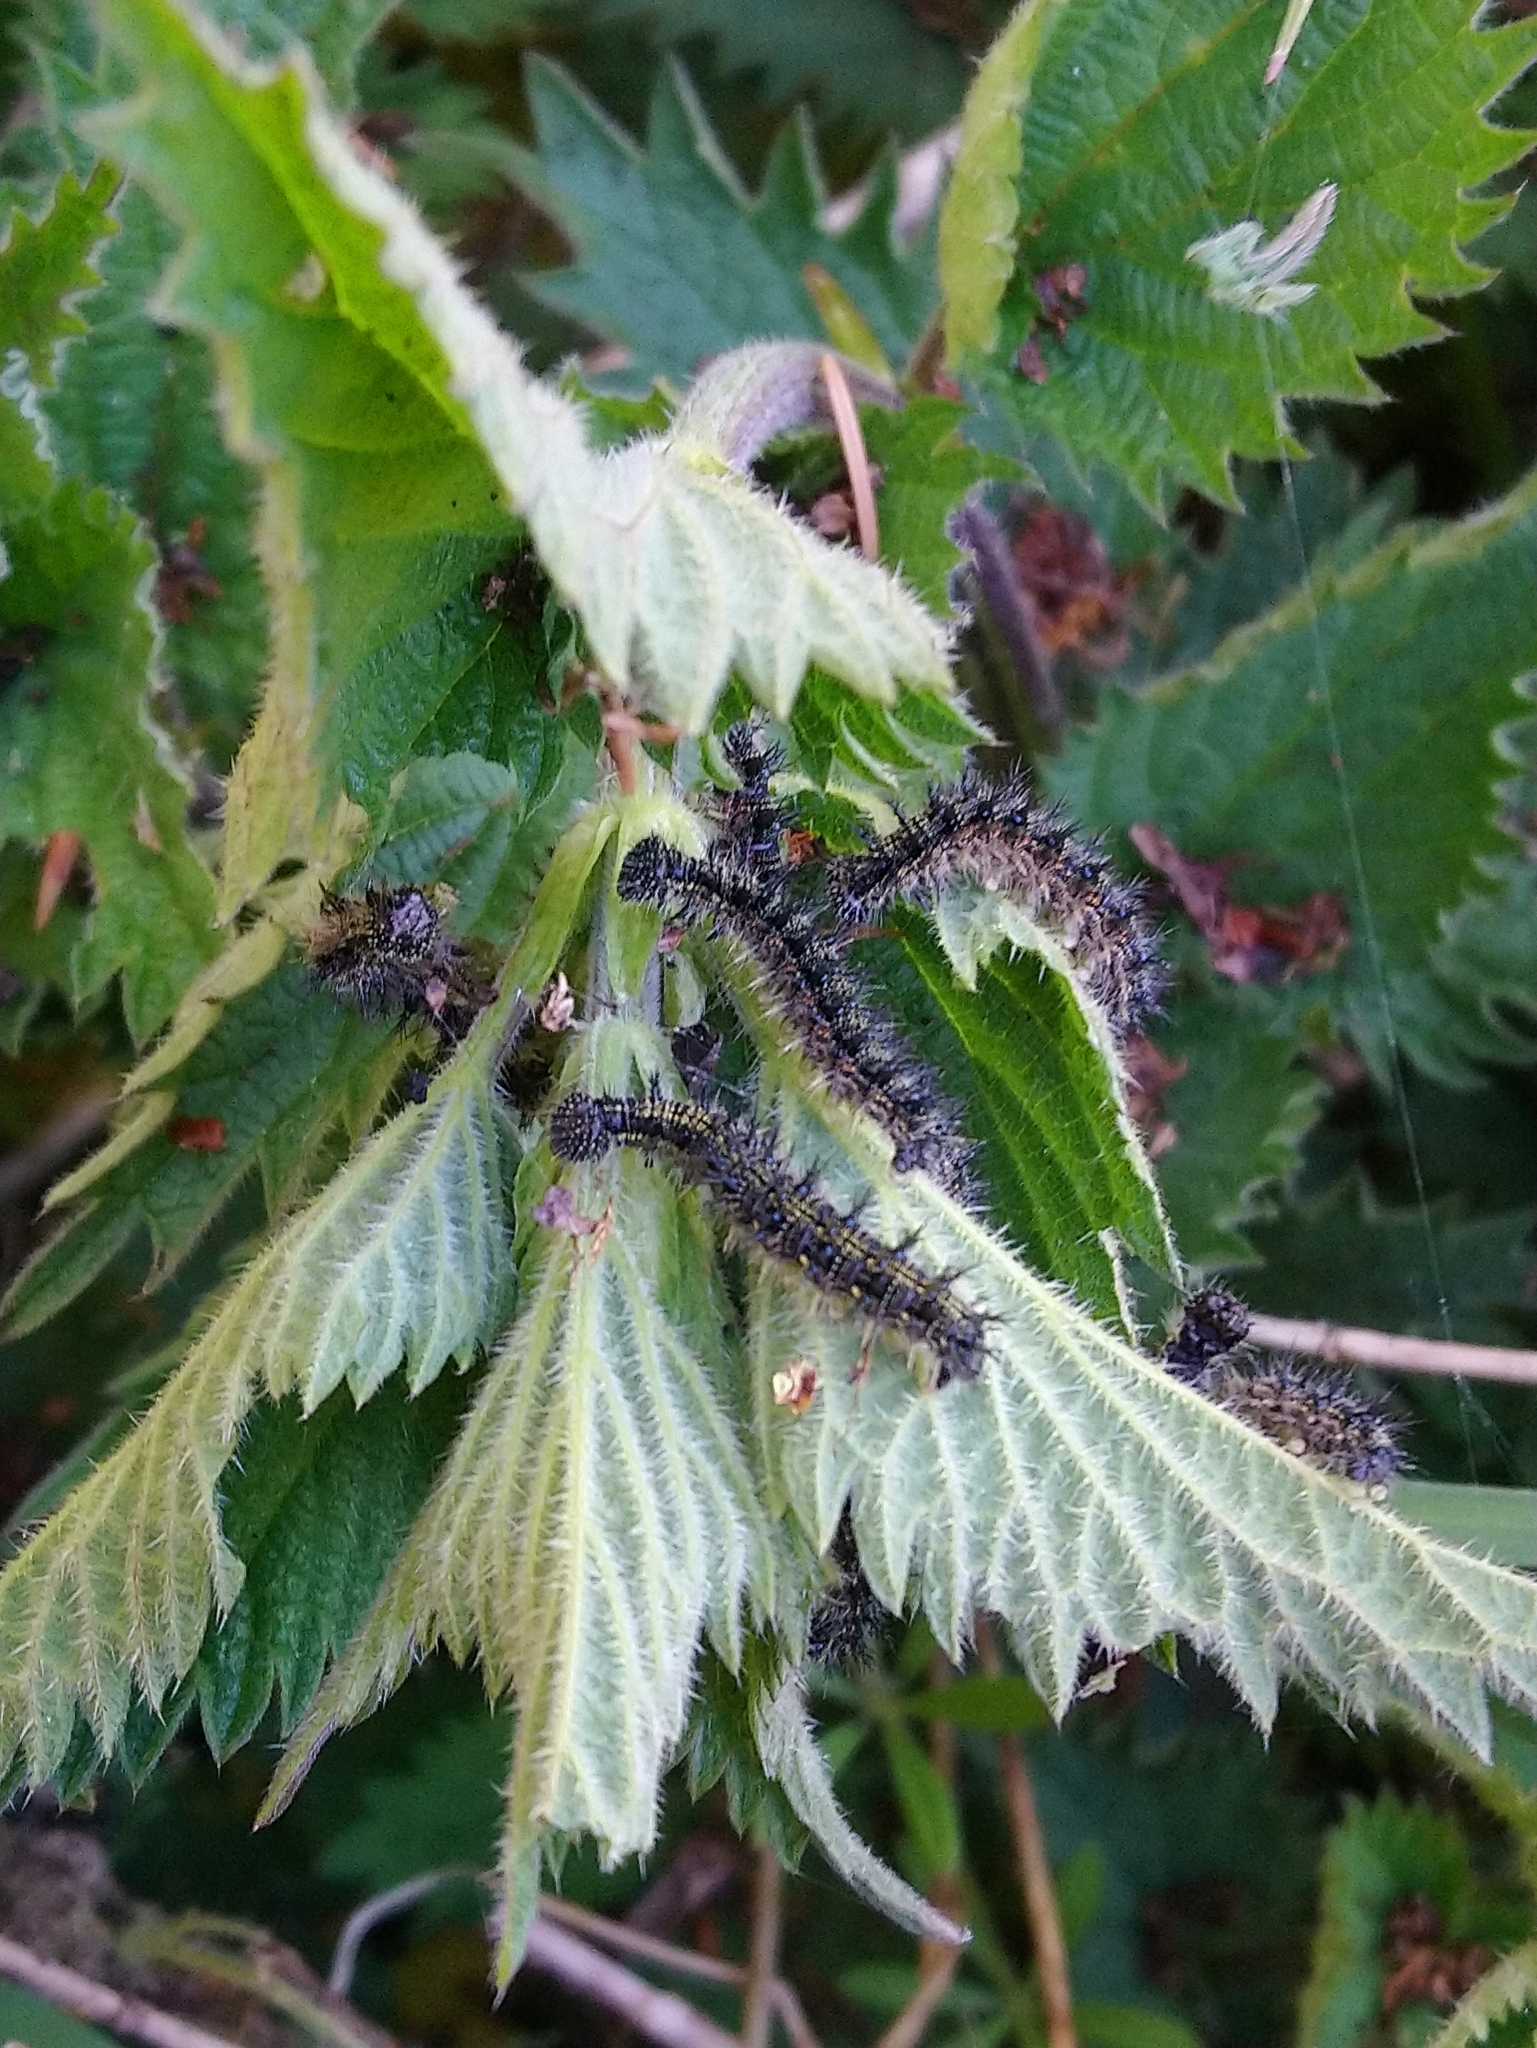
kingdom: Animalia
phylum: Arthropoda
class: Insecta
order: Lepidoptera
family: Nymphalidae
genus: Aglais
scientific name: Aglais urticae
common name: Small tortoiseshell
